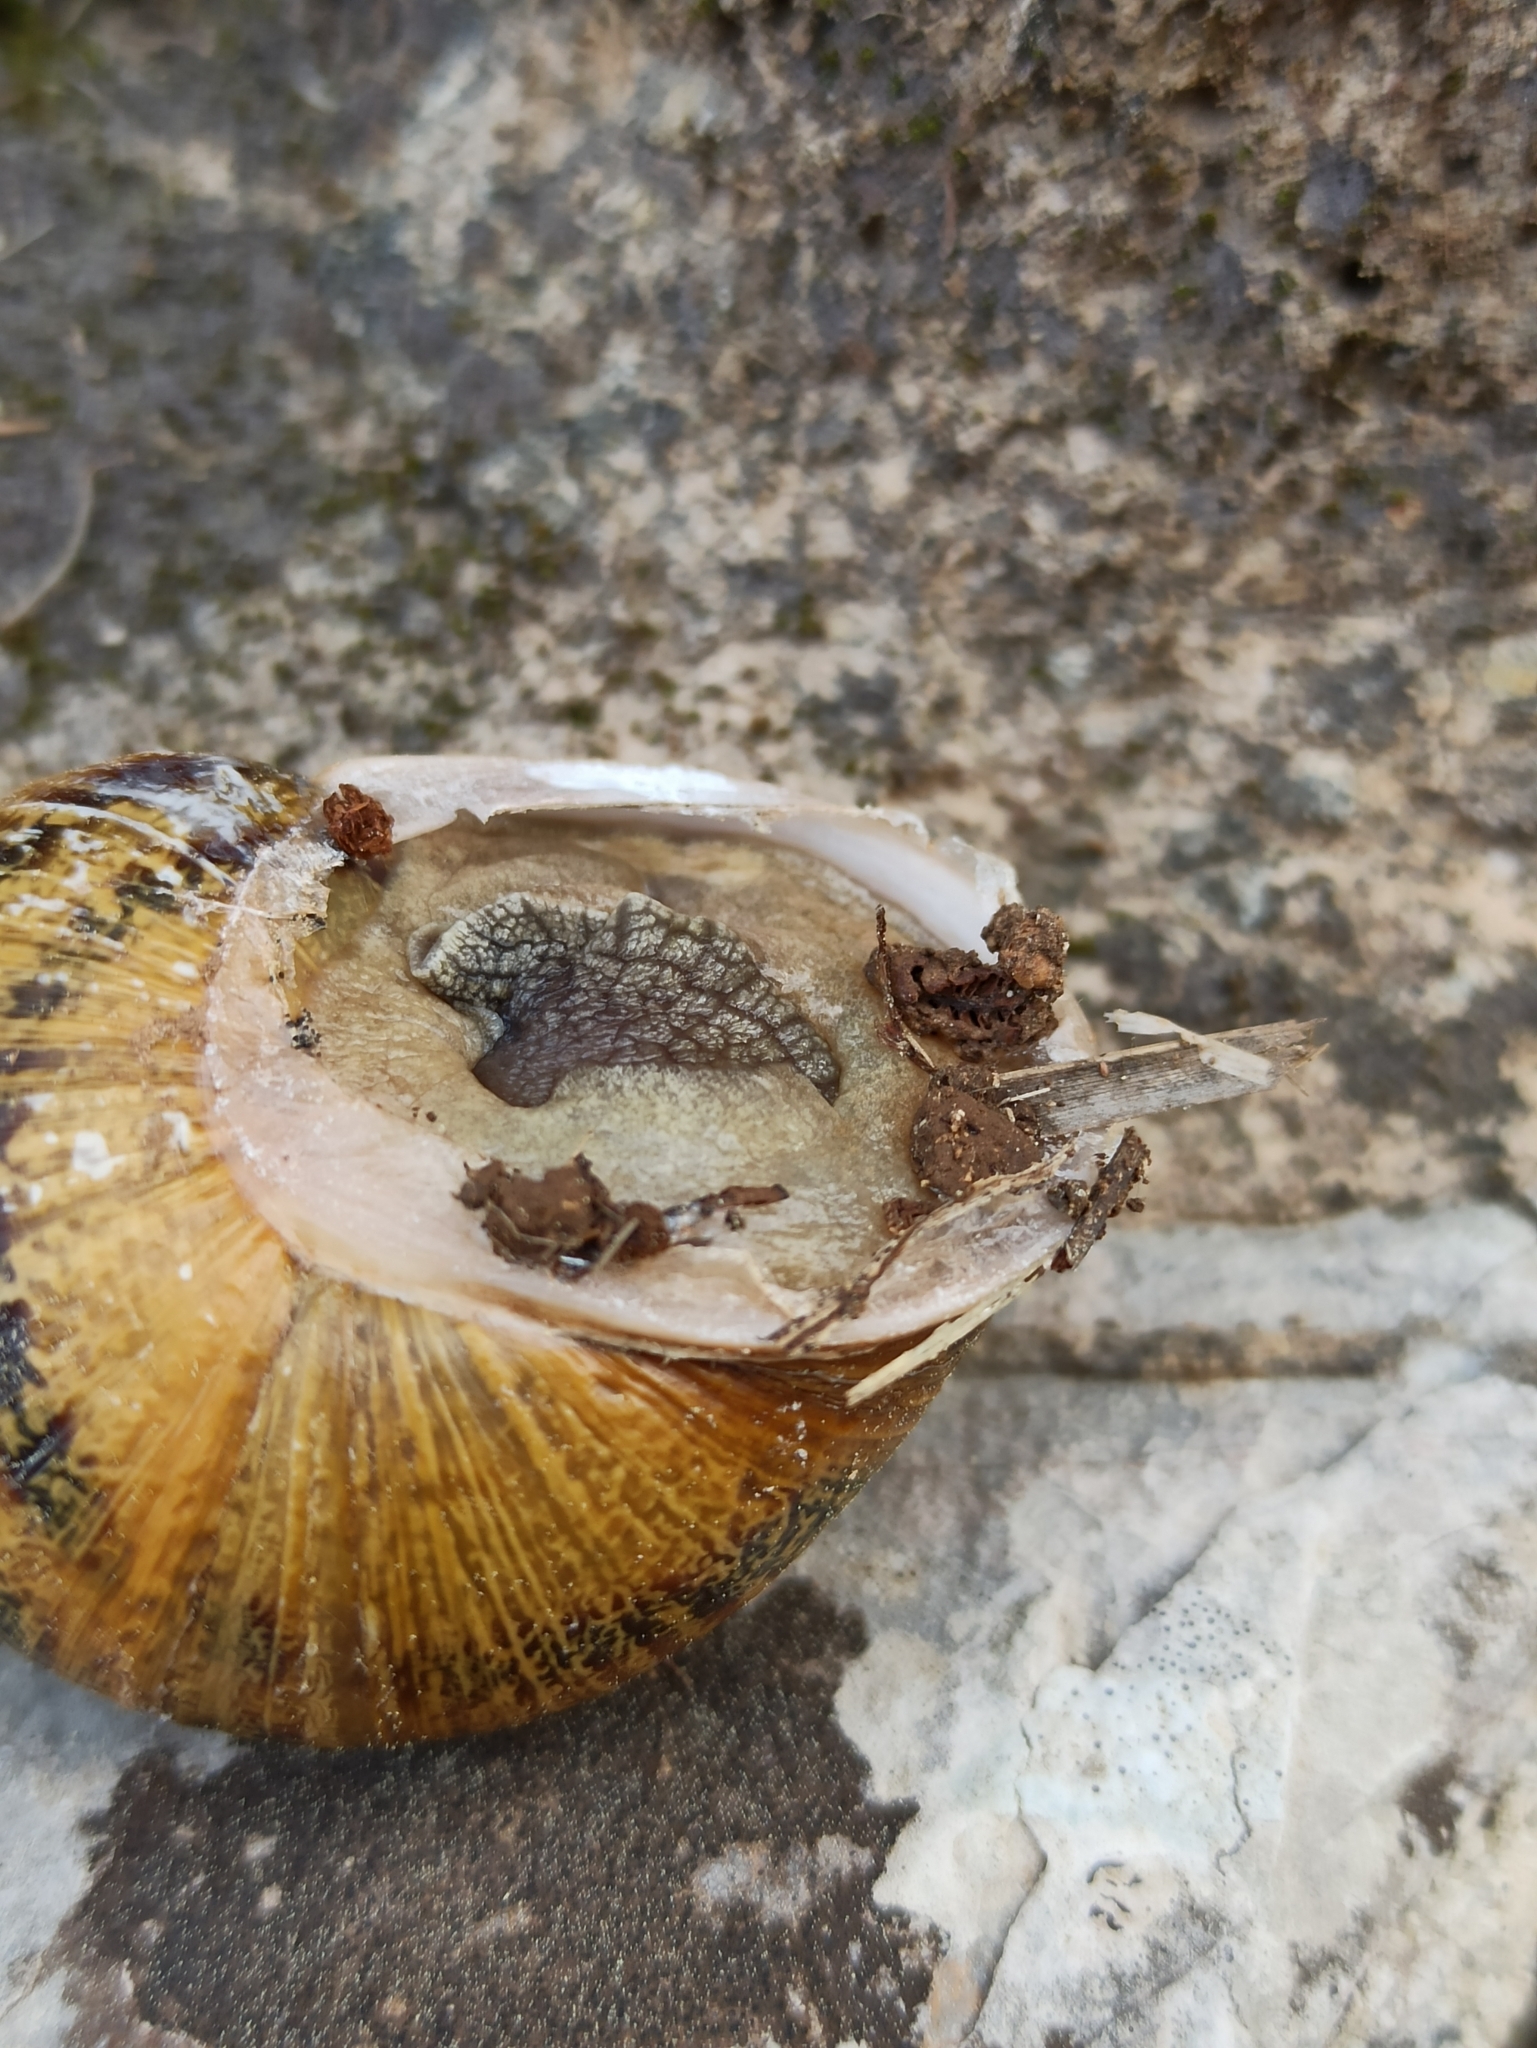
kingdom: Animalia
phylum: Mollusca
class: Gastropoda
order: Stylommatophora
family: Helicidae
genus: Cornu
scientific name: Cornu aspersum
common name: Brown garden snail
